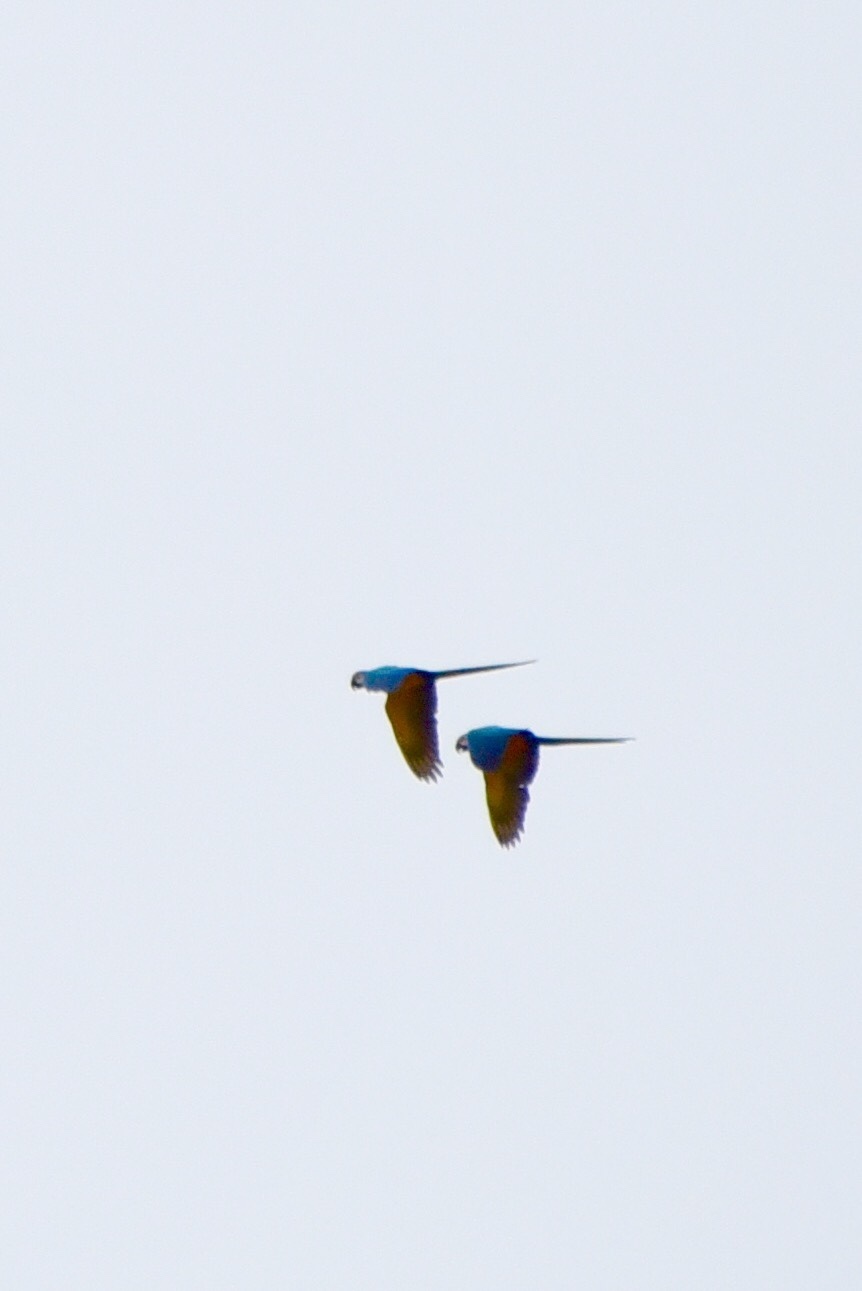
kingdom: Animalia
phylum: Chordata
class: Aves
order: Psittaciformes
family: Psittacidae
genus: Ara
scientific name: Ara ararauna
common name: Blue-and-yellow macaw
